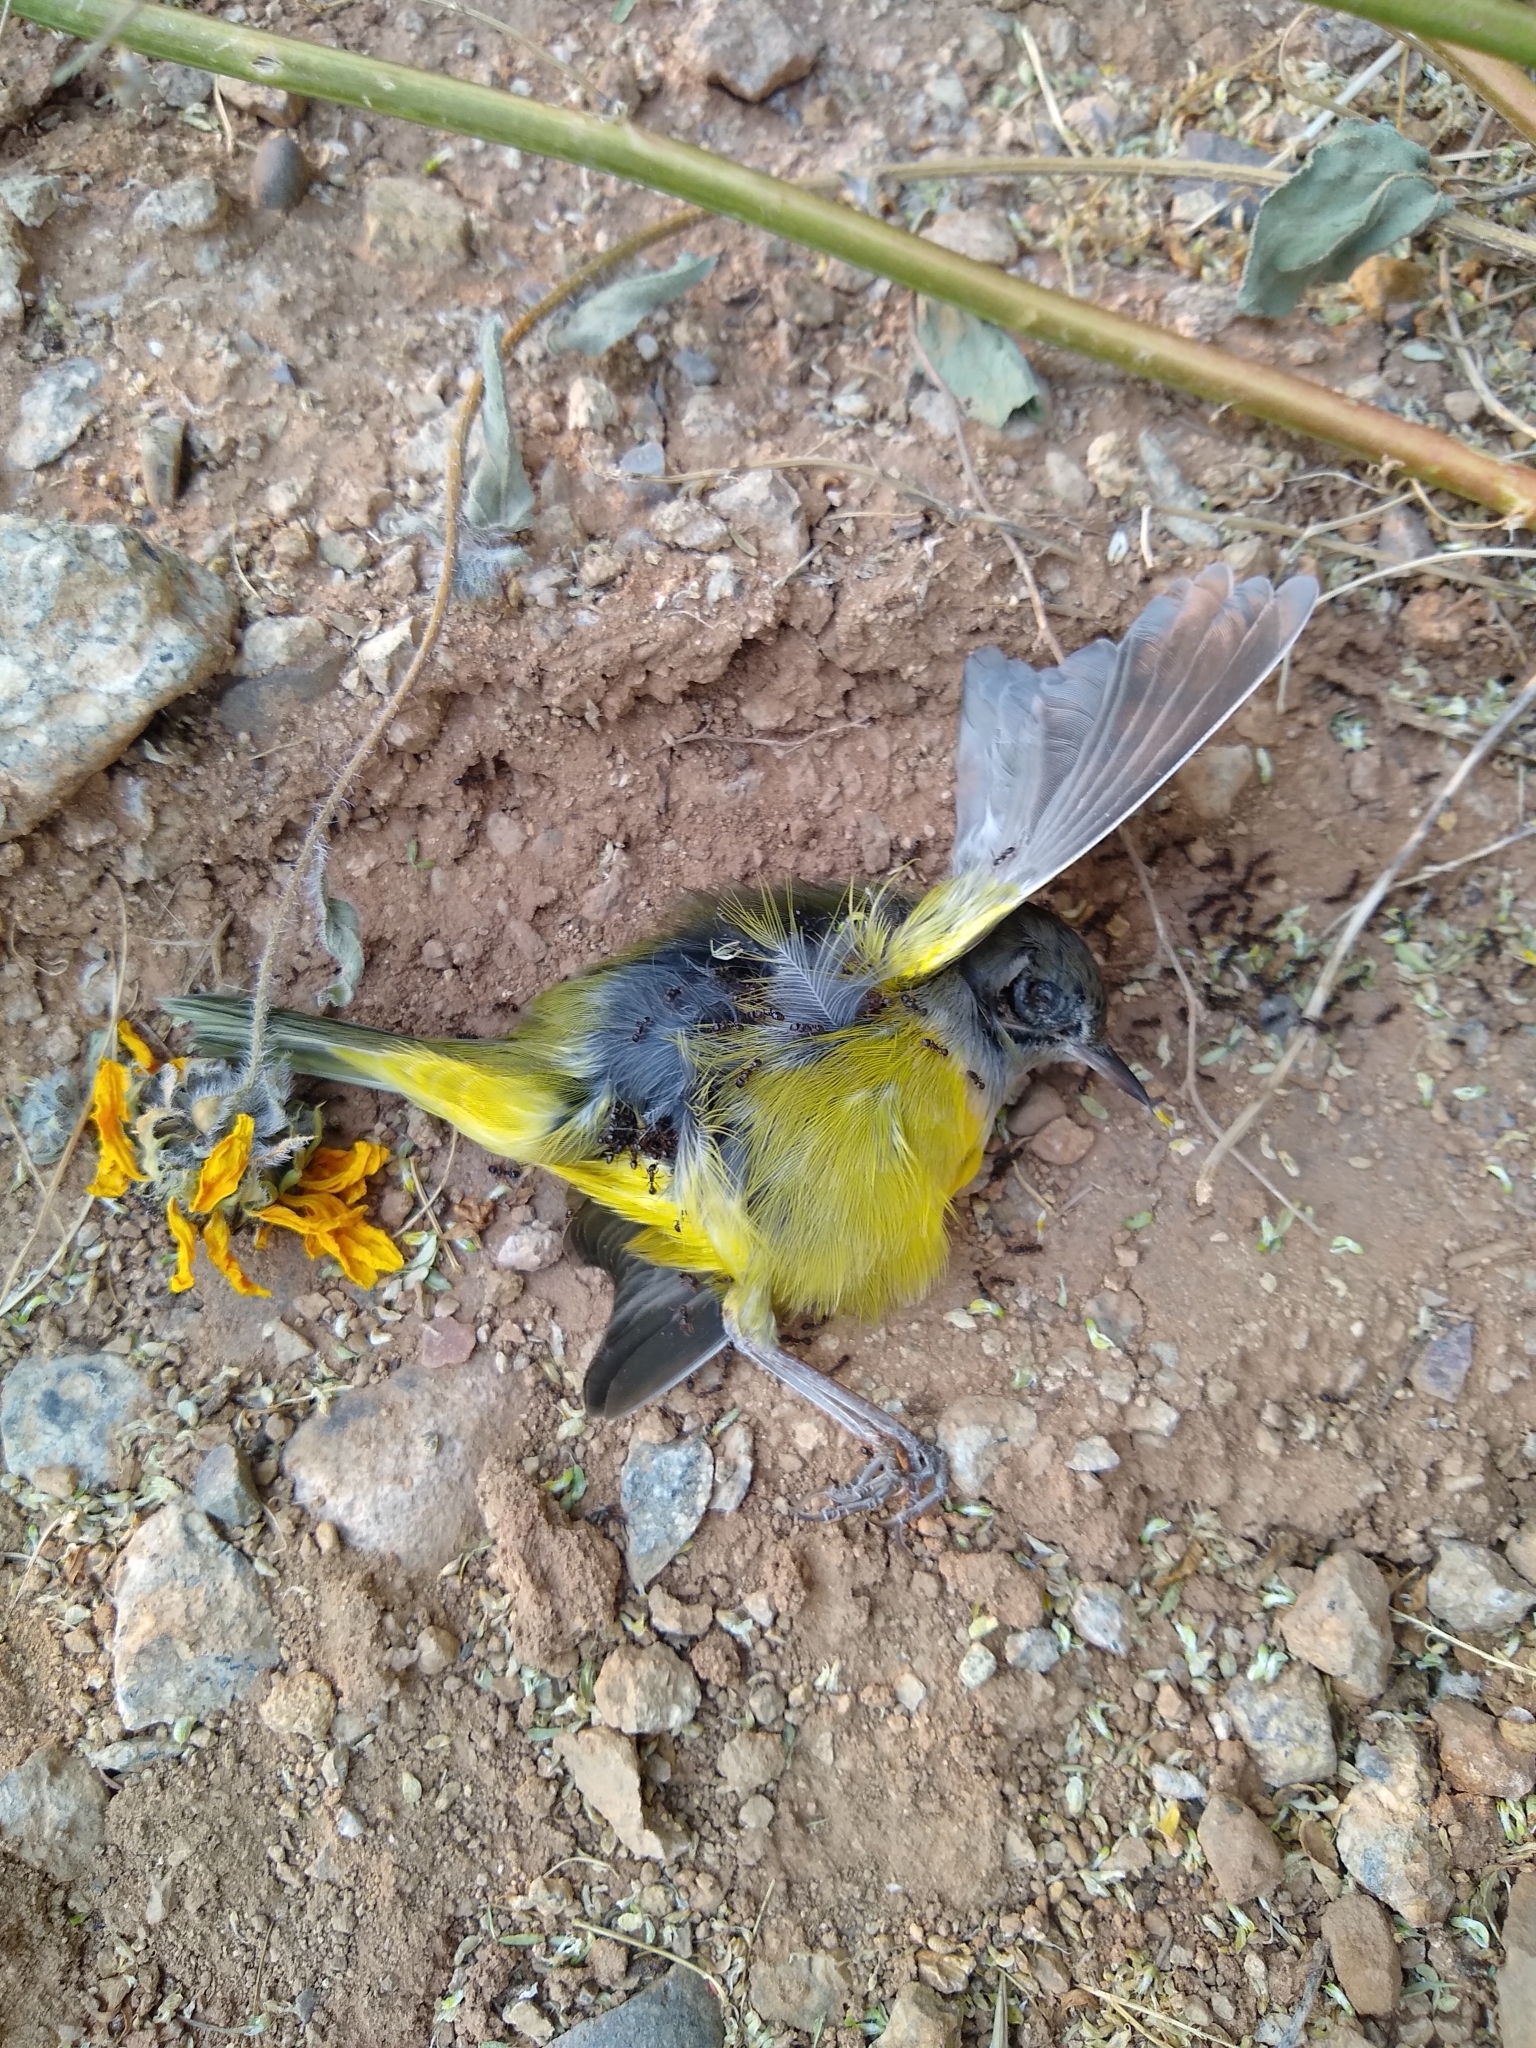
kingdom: Animalia
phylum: Chordata
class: Aves
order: Passeriformes
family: Parulidae
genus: Geothlypis
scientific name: Geothlypis tolmiei
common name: Macgillivray's warbler
